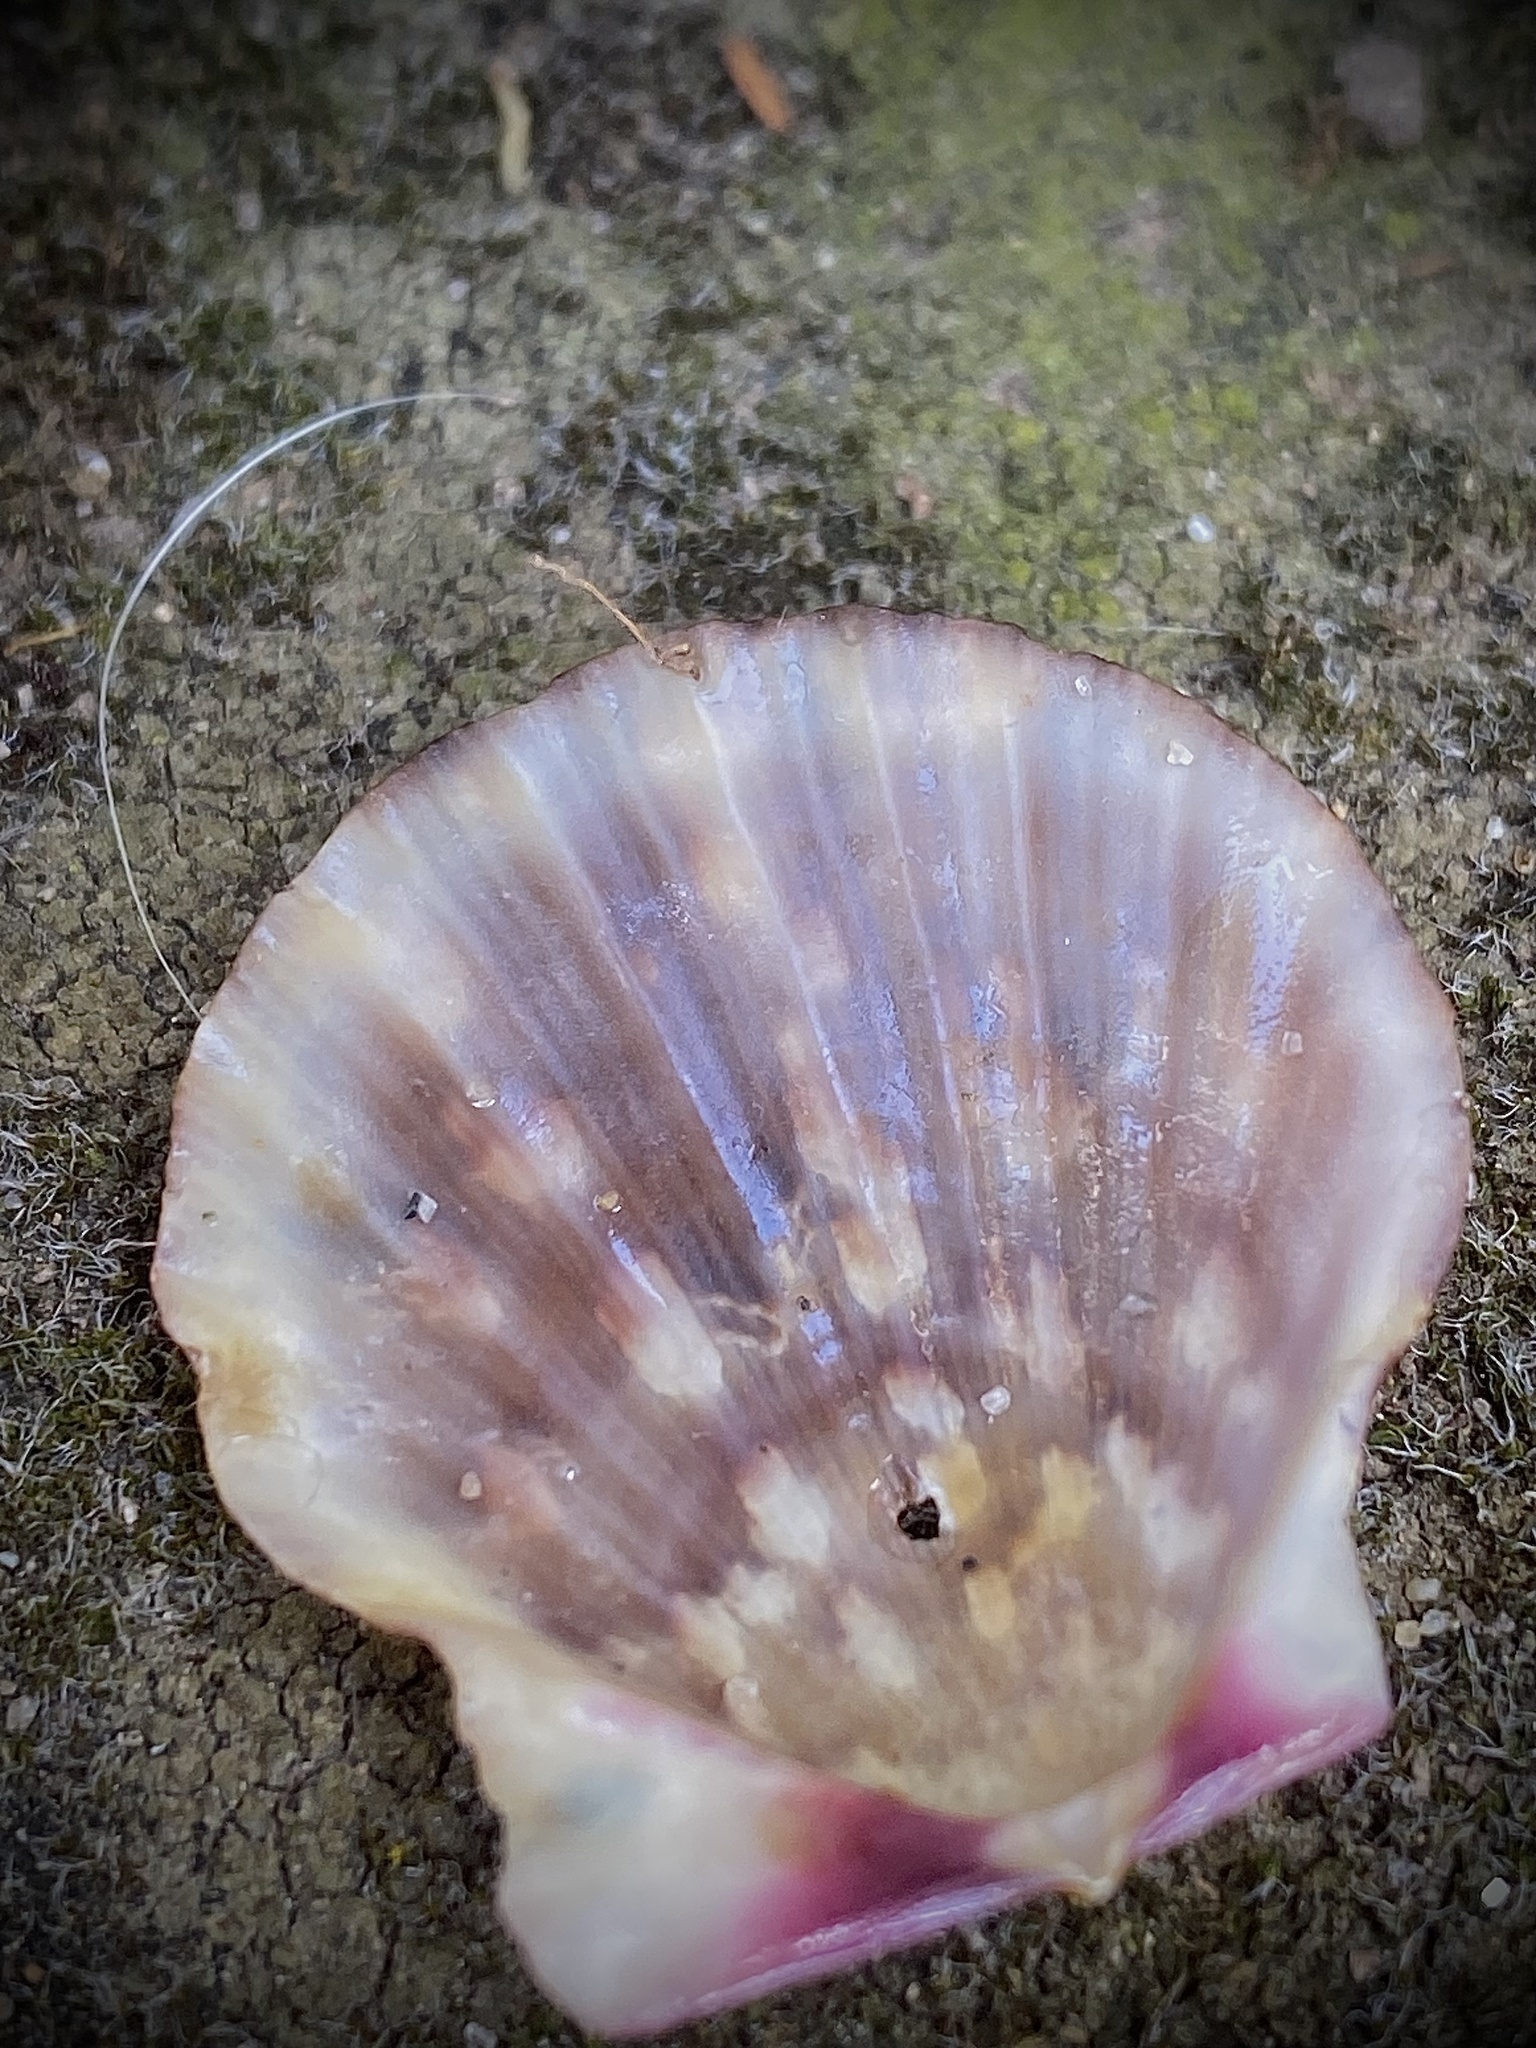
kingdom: Animalia
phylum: Mollusca
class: Bivalvia
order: Pectinida
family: Pectinidae
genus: Crassadoma
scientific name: Crassadoma gigantea
